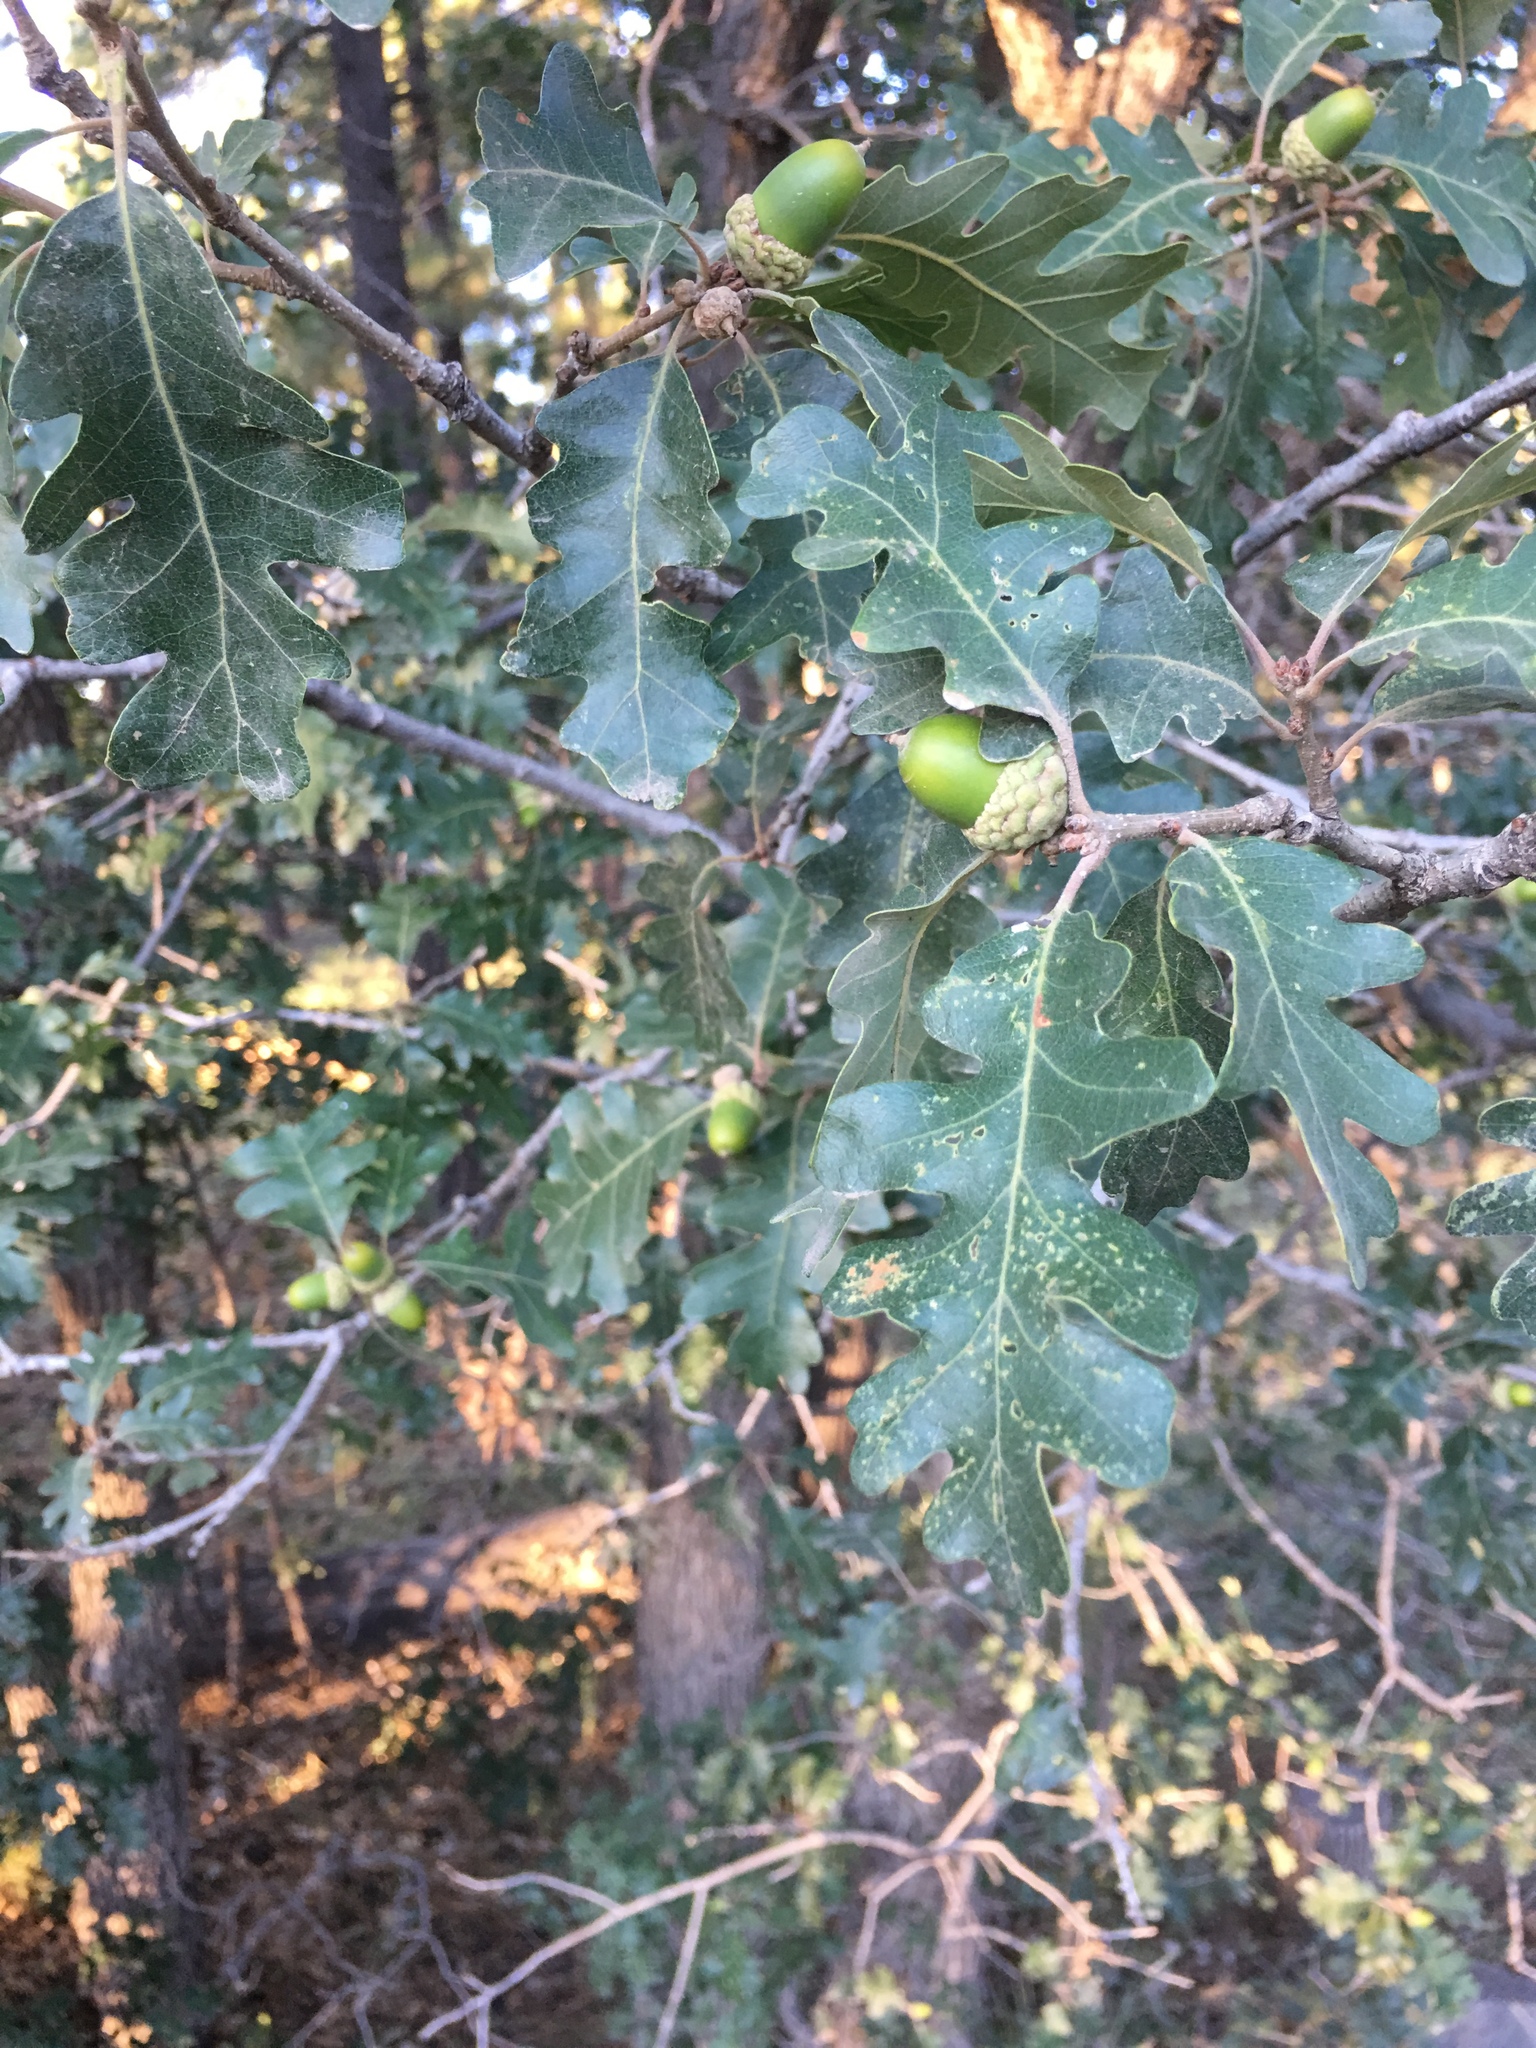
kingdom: Plantae
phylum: Tracheophyta
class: Magnoliopsida
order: Fagales
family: Fagaceae
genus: Quercus
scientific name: Quercus gambelii
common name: Gambel oak
